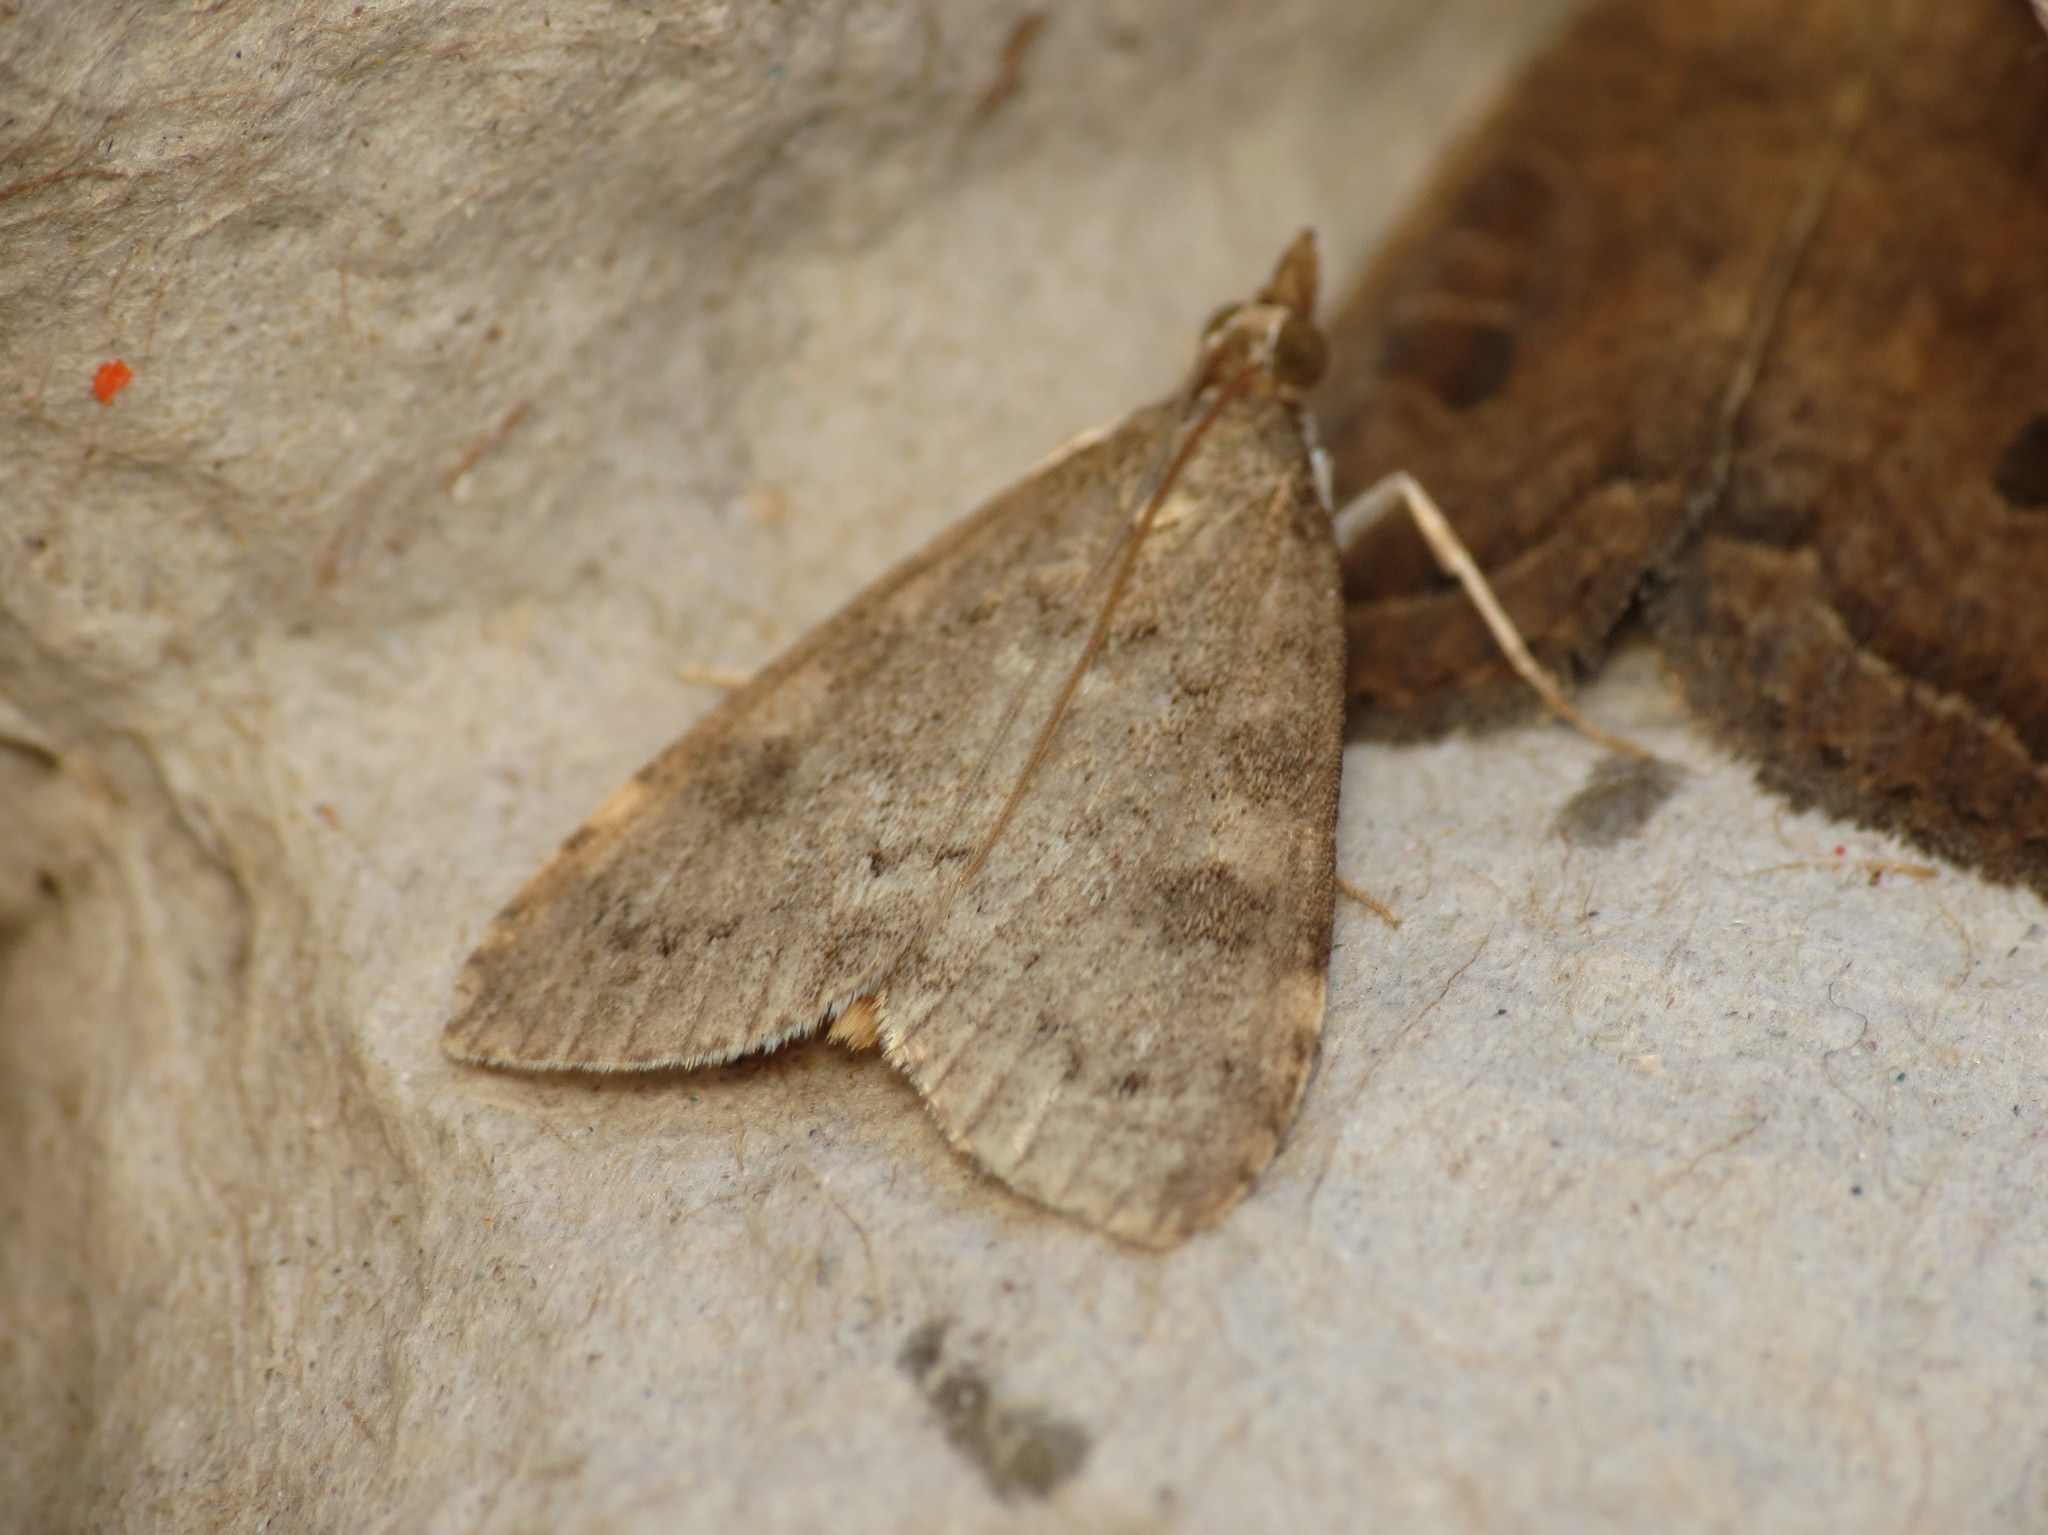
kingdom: Animalia
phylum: Arthropoda
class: Insecta
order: Lepidoptera
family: Crambidae
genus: Udea
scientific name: Udea prunalis
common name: Dusky pearl
